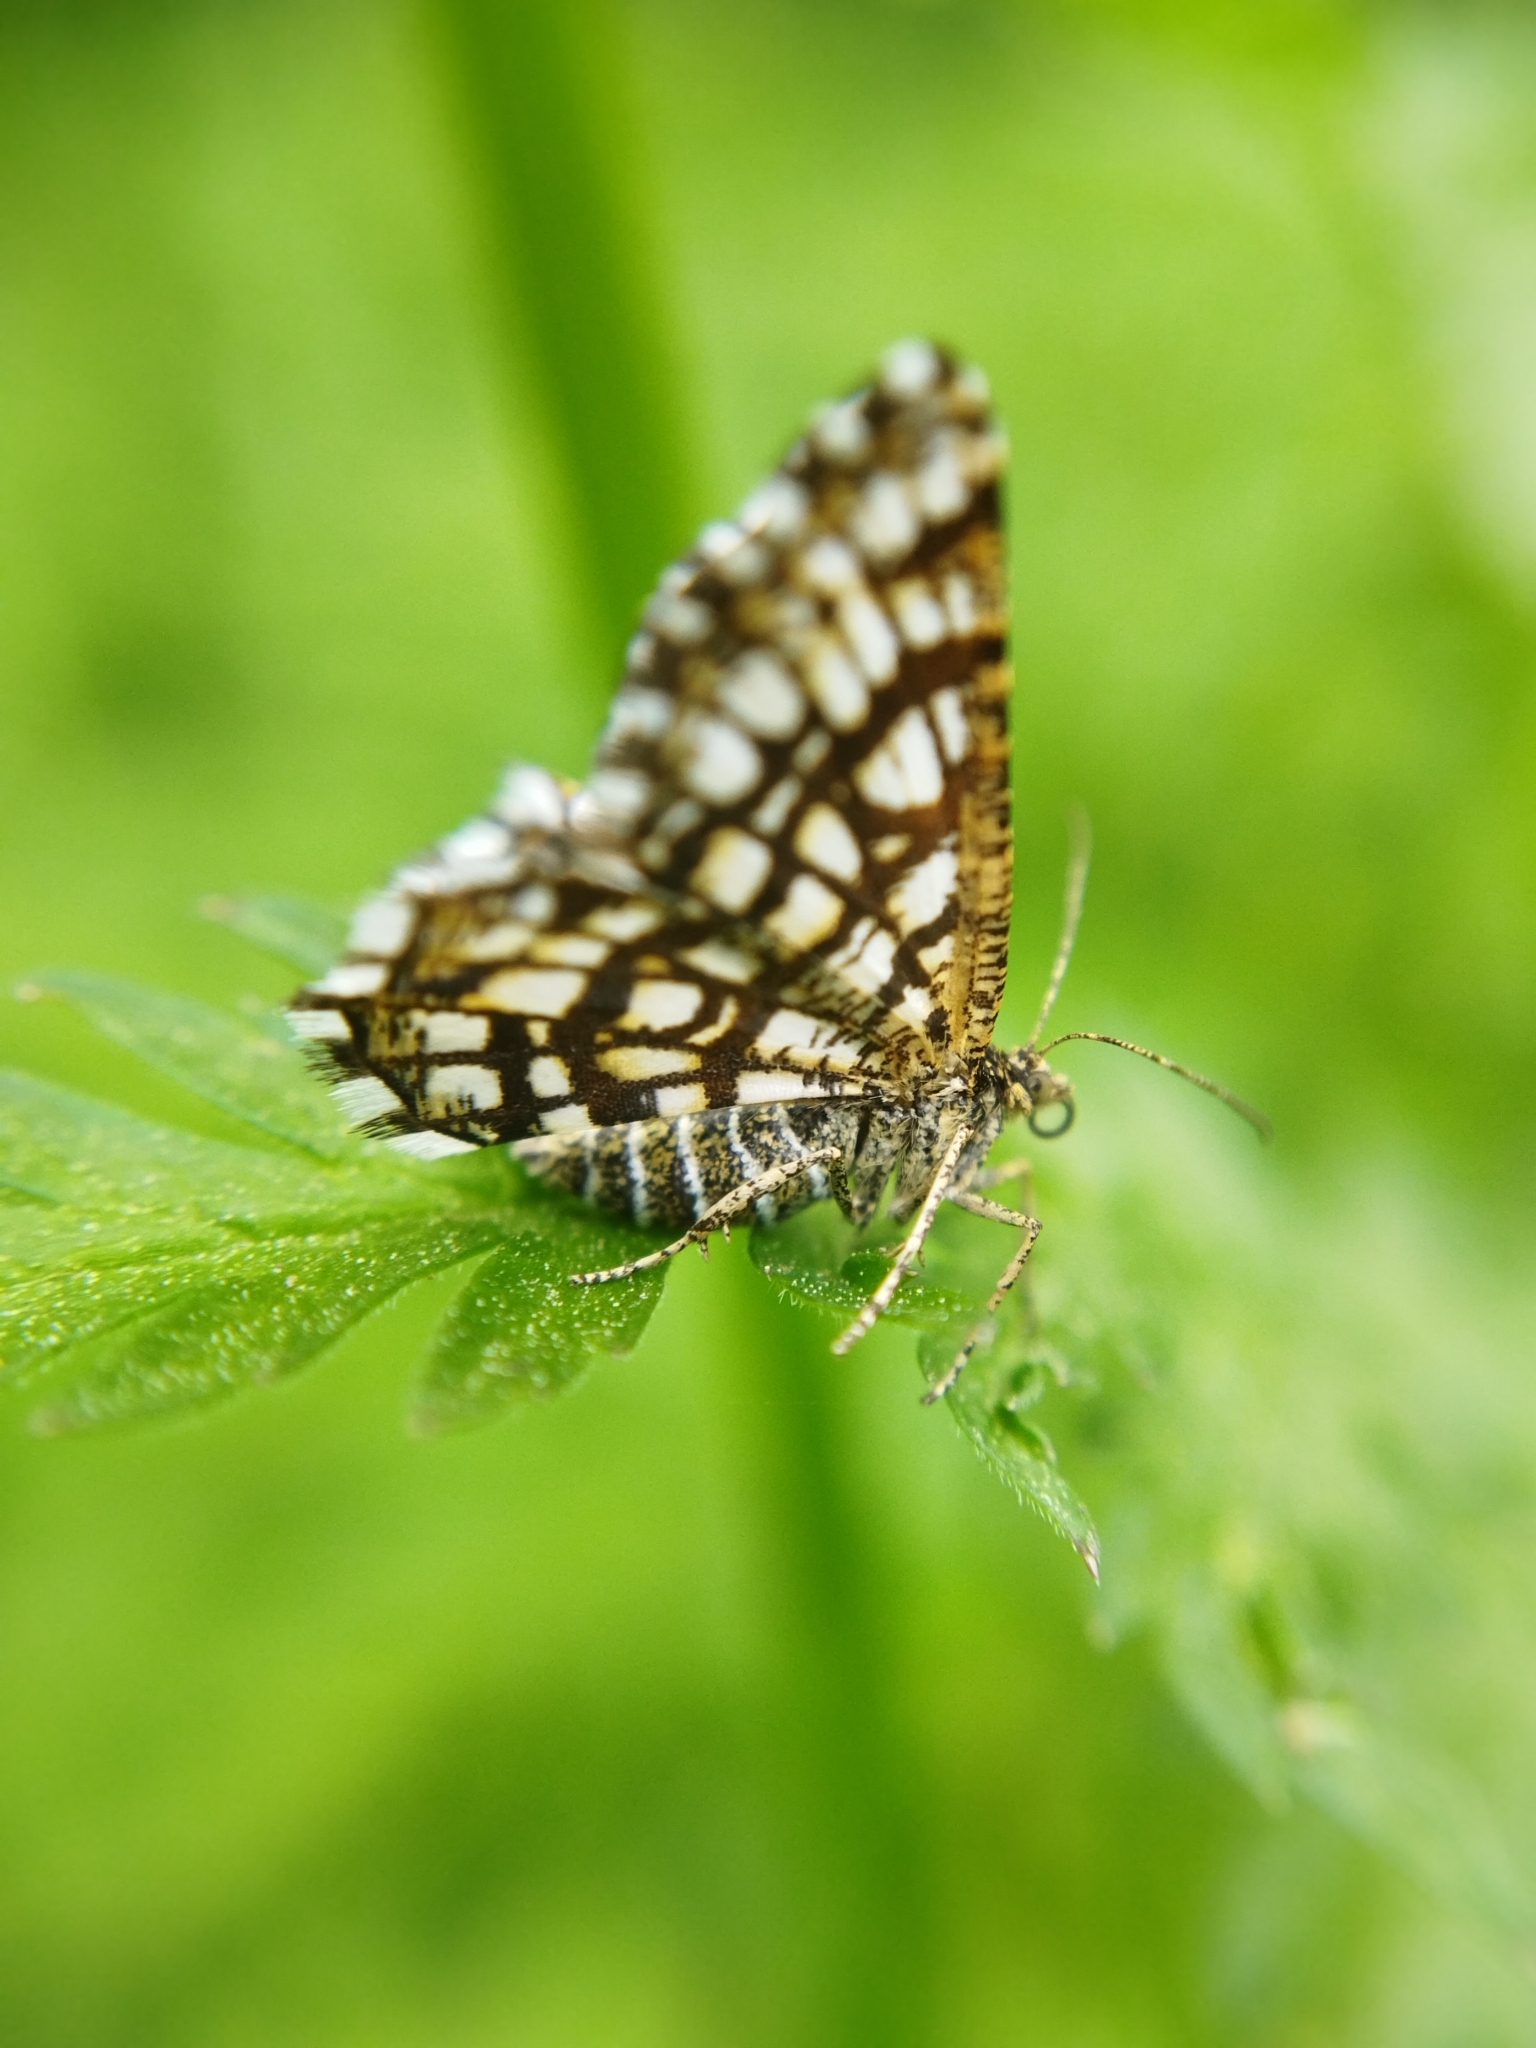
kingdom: Animalia
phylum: Arthropoda
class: Insecta
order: Lepidoptera
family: Geometridae
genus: Chiasmia
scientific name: Chiasmia clathrata
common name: Latticed heath
